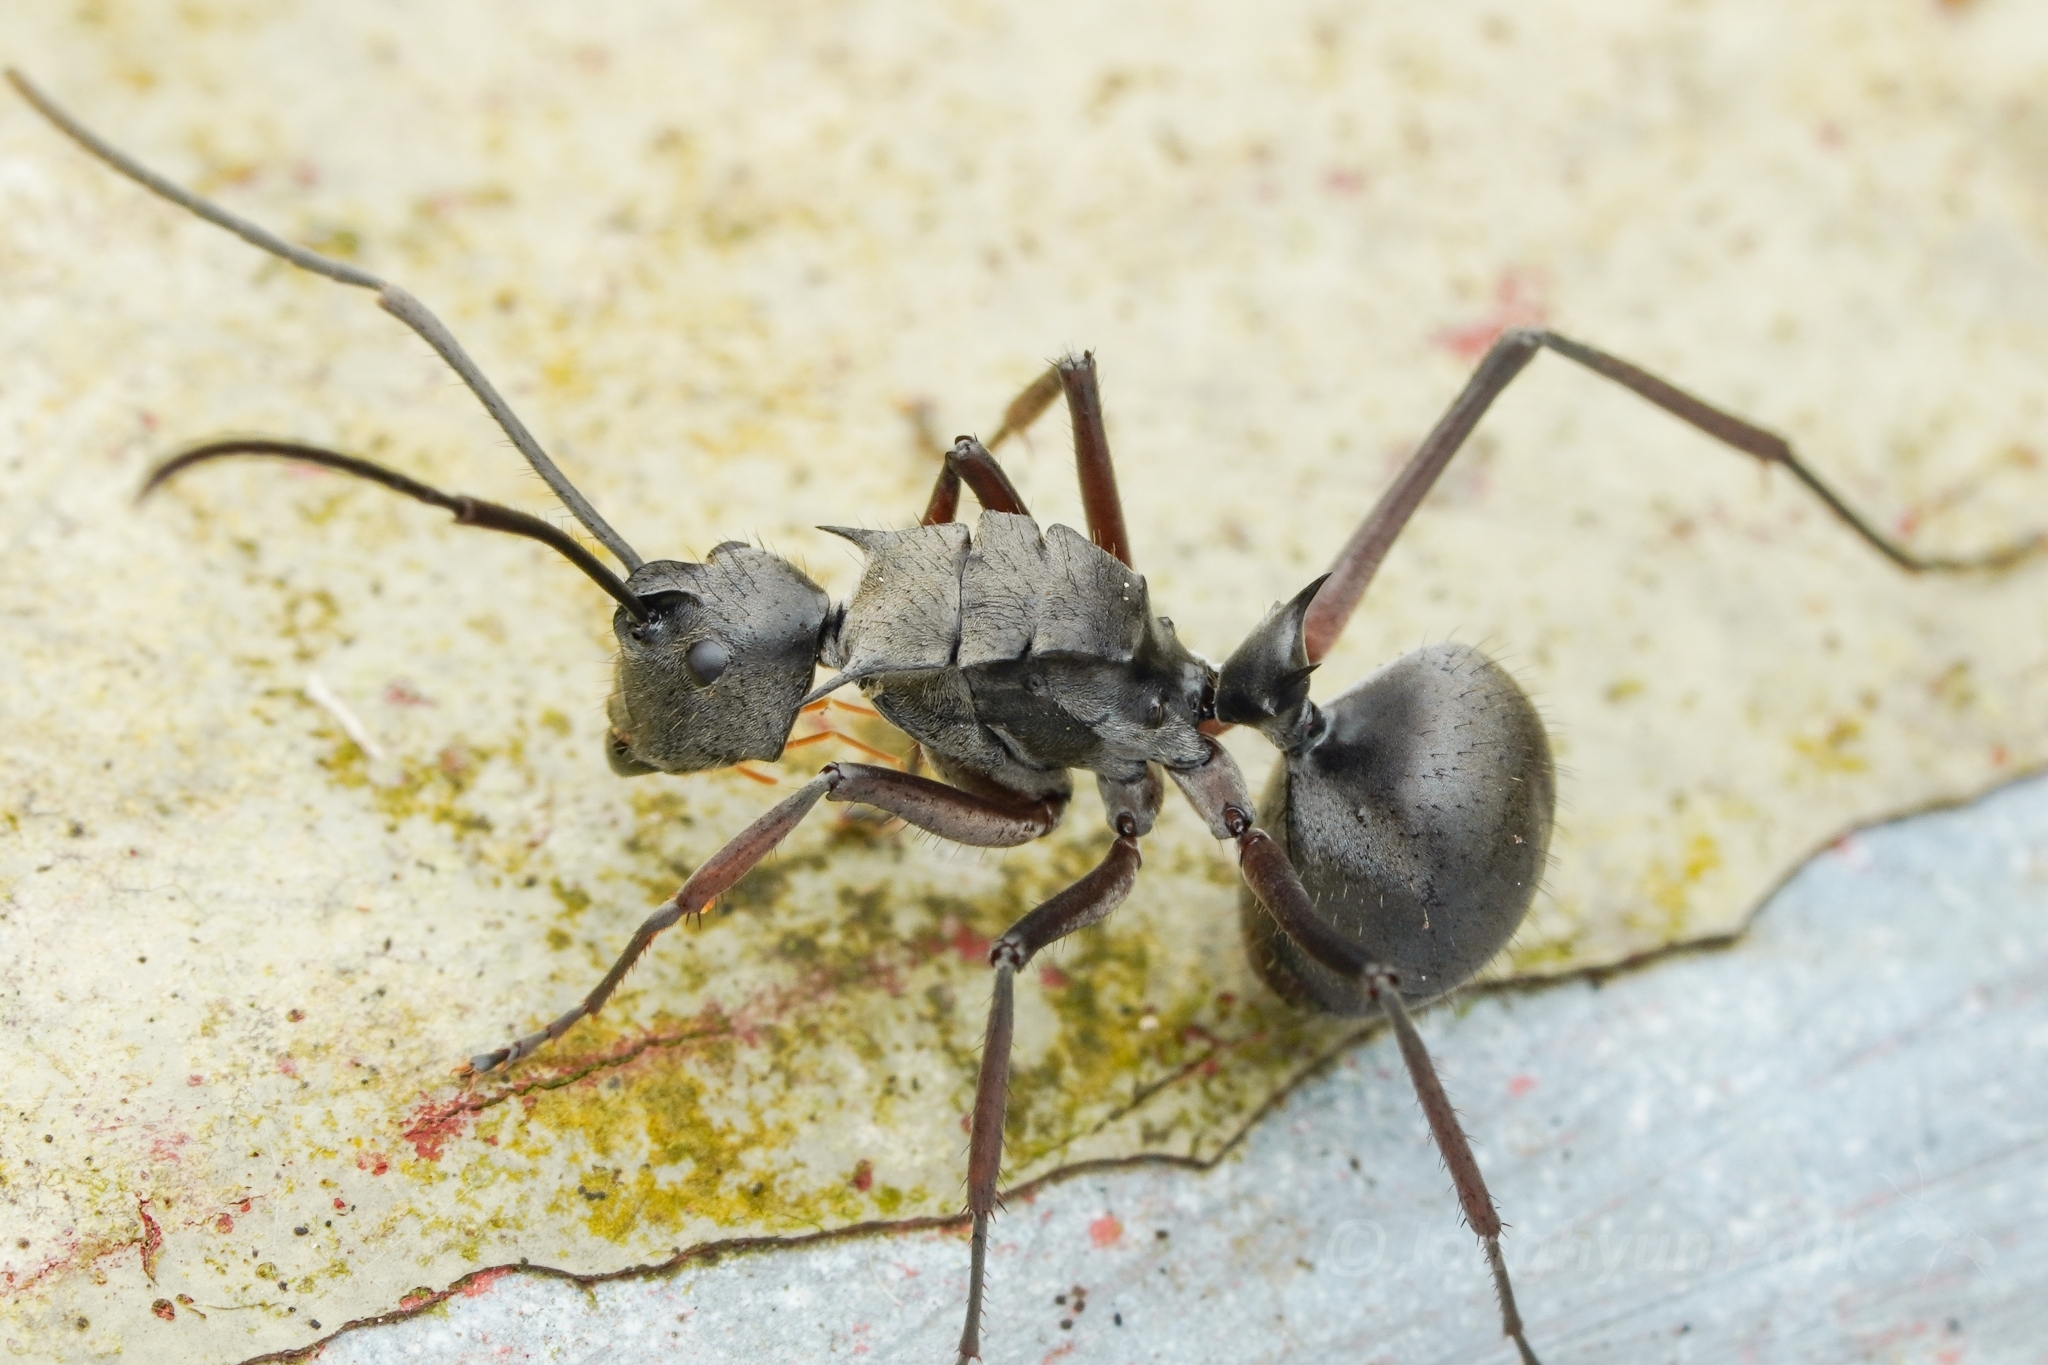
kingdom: Animalia
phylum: Arthropoda
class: Insecta
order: Hymenoptera
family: Formicidae
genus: Polyrhachis
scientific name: Polyrhachis tyrannica
